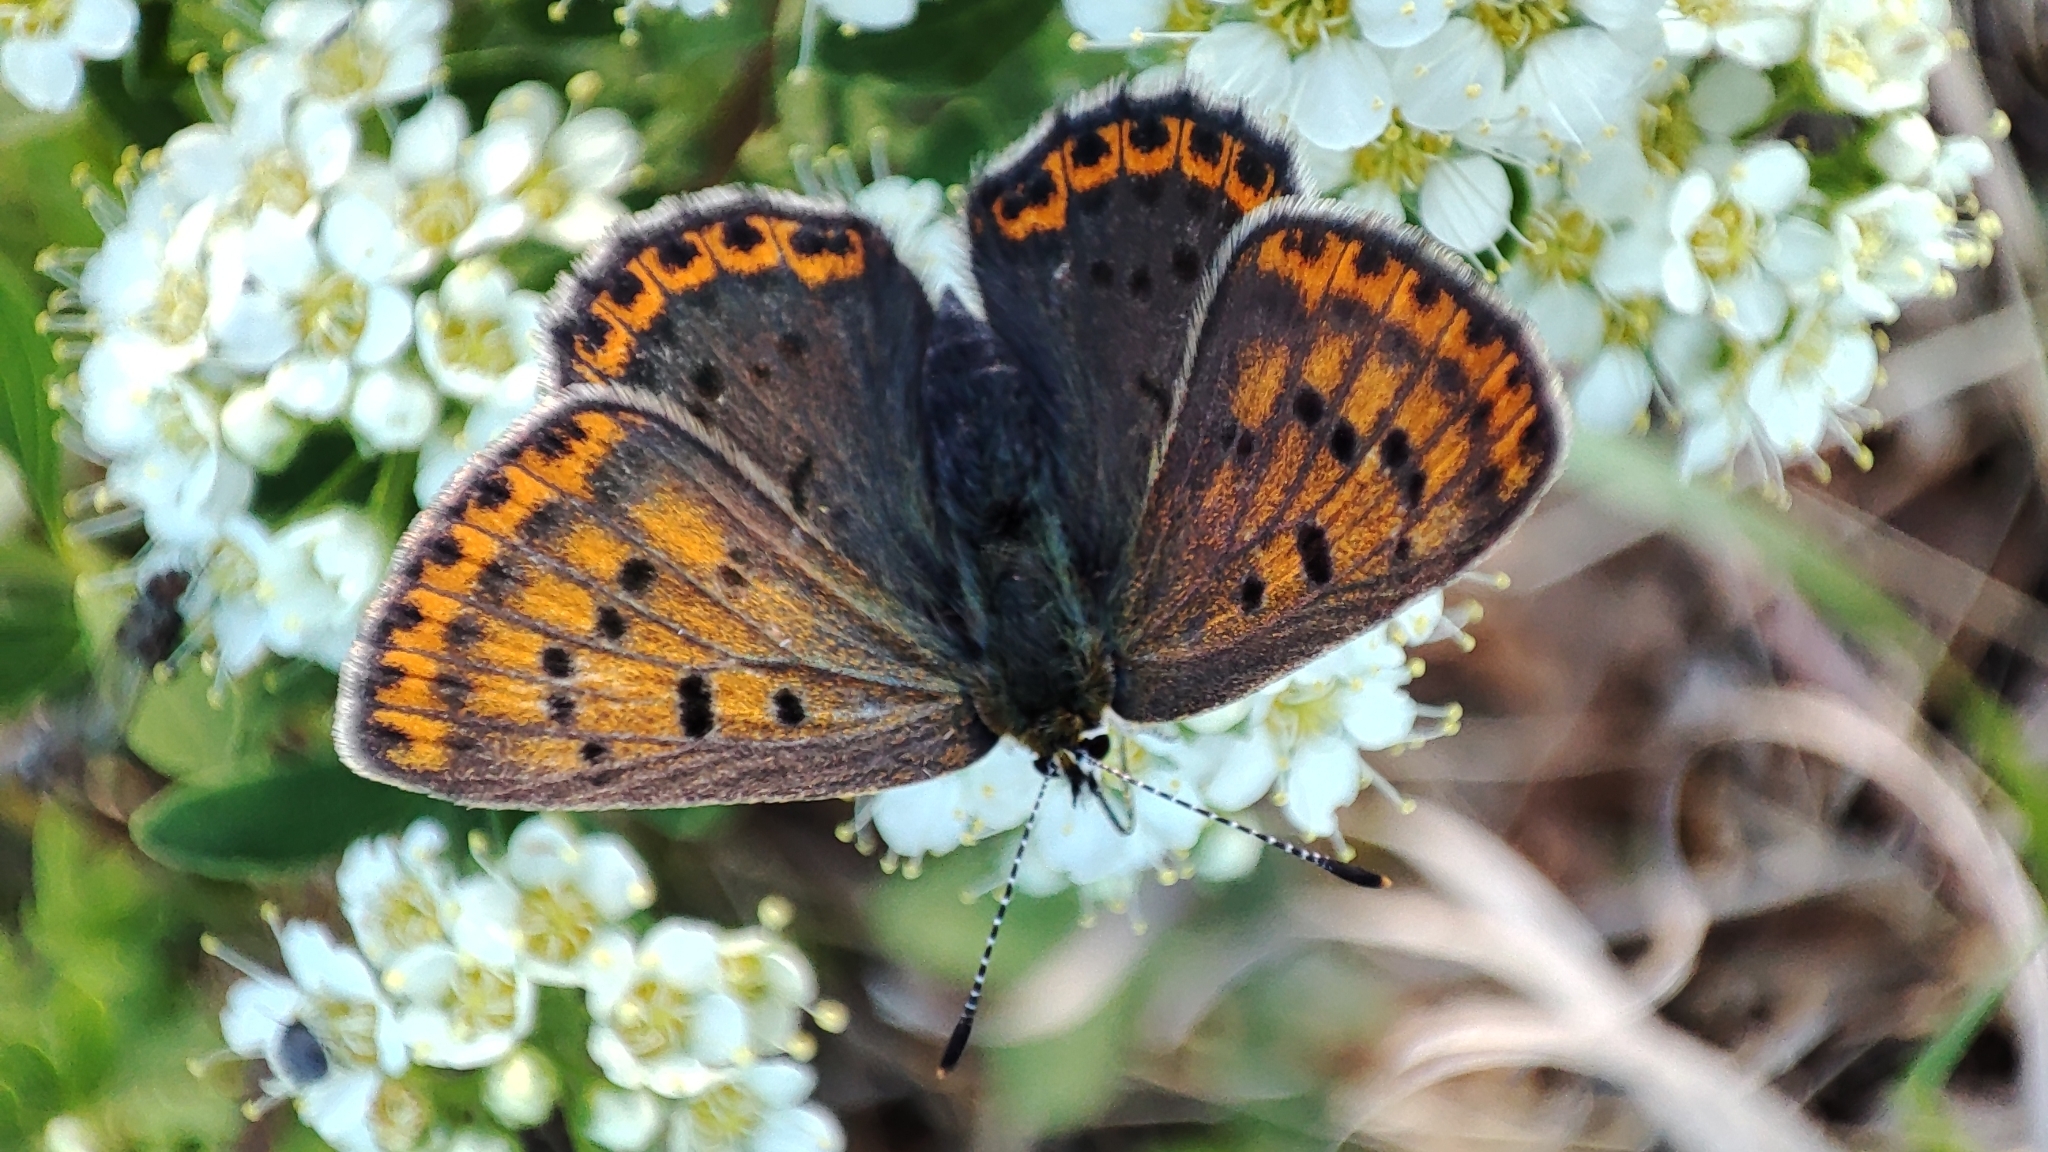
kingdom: Animalia
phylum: Arthropoda
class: Insecta
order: Lepidoptera
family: Lycaenidae
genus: Loweia
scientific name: Loweia tityrus
